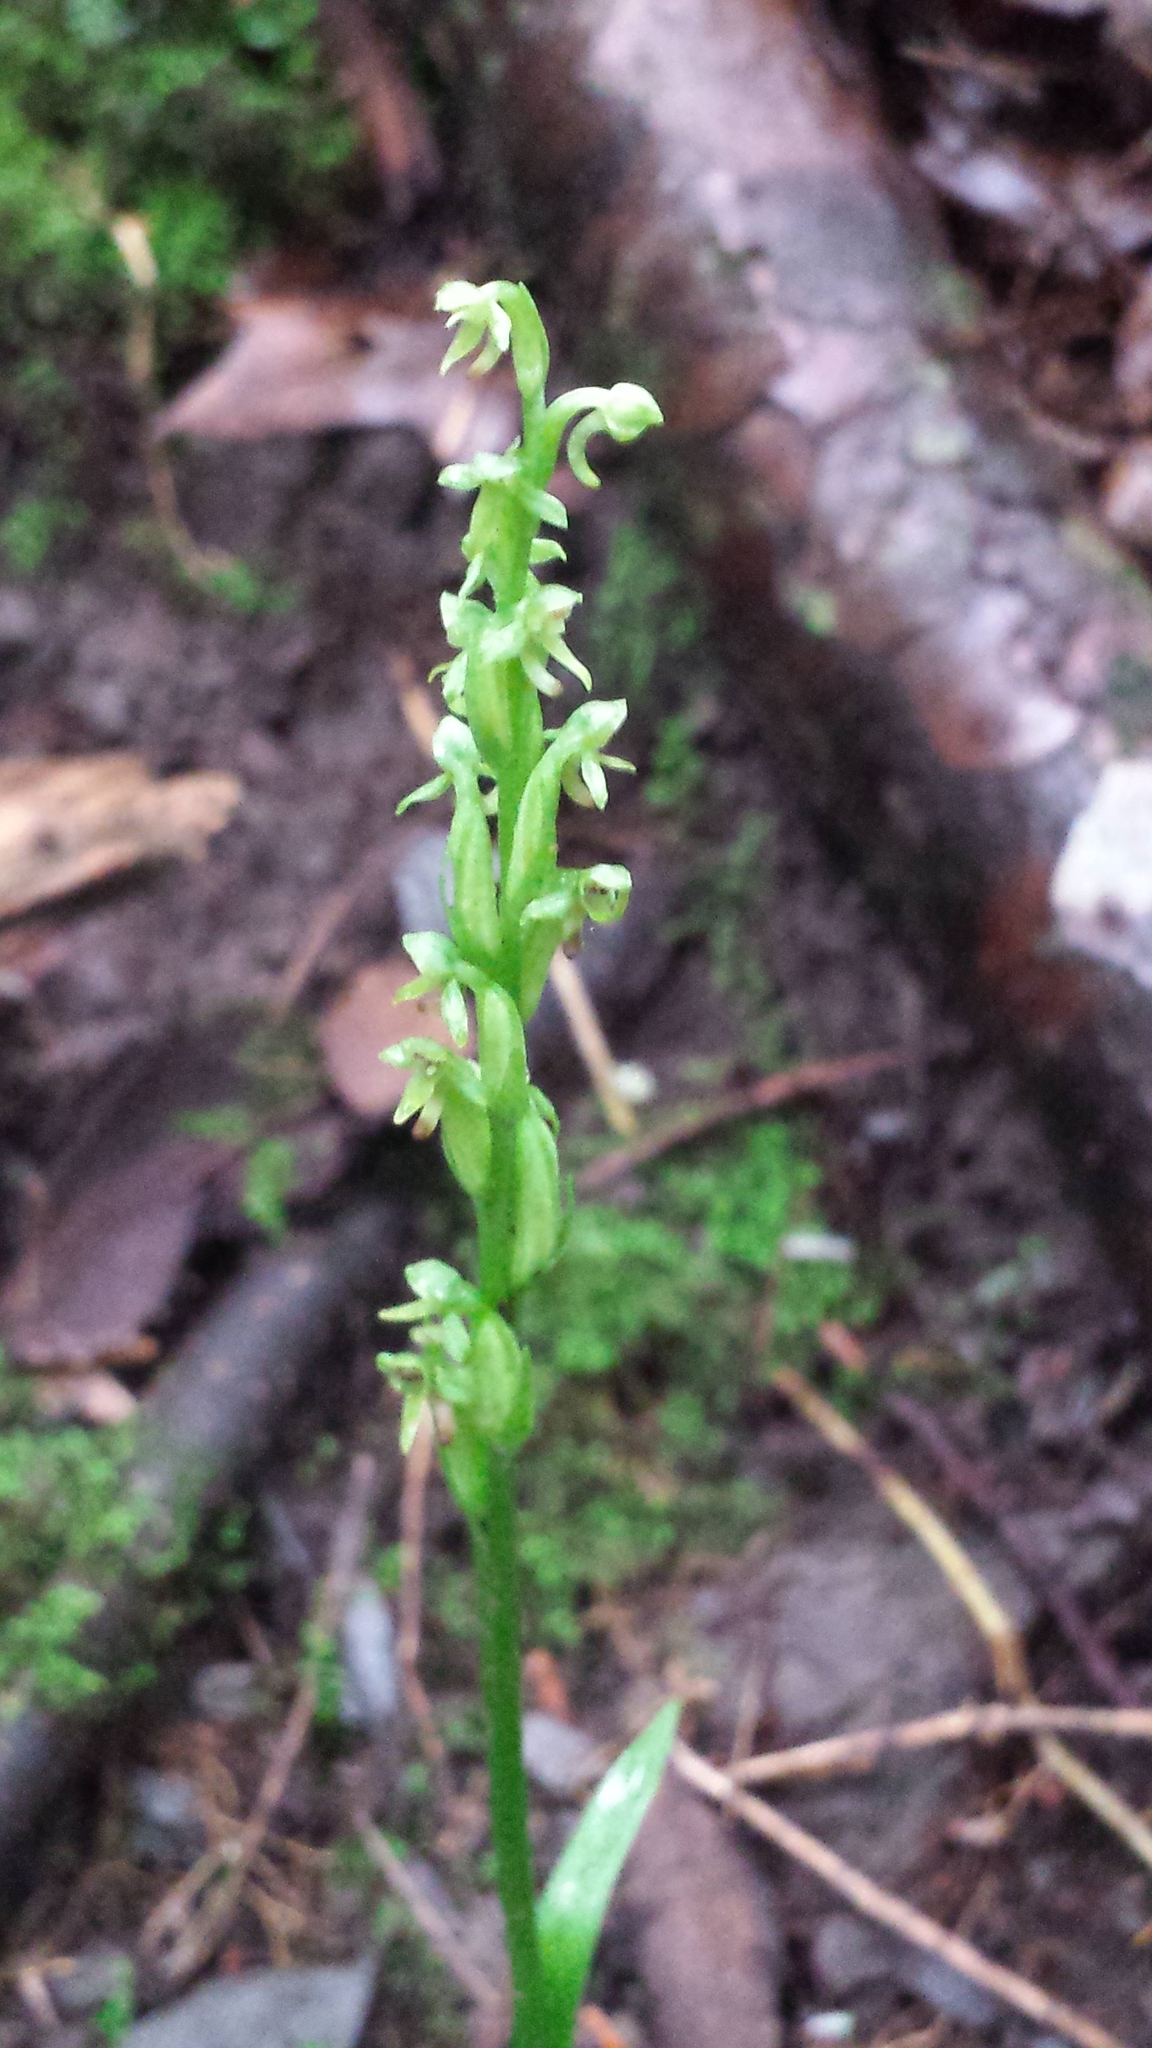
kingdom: Plantae
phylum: Tracheophyta
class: Liliopsida
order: Asparagales
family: Orchidaceae
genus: Platanthera
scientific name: Platanthera aquilonis
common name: Northern green orchid
